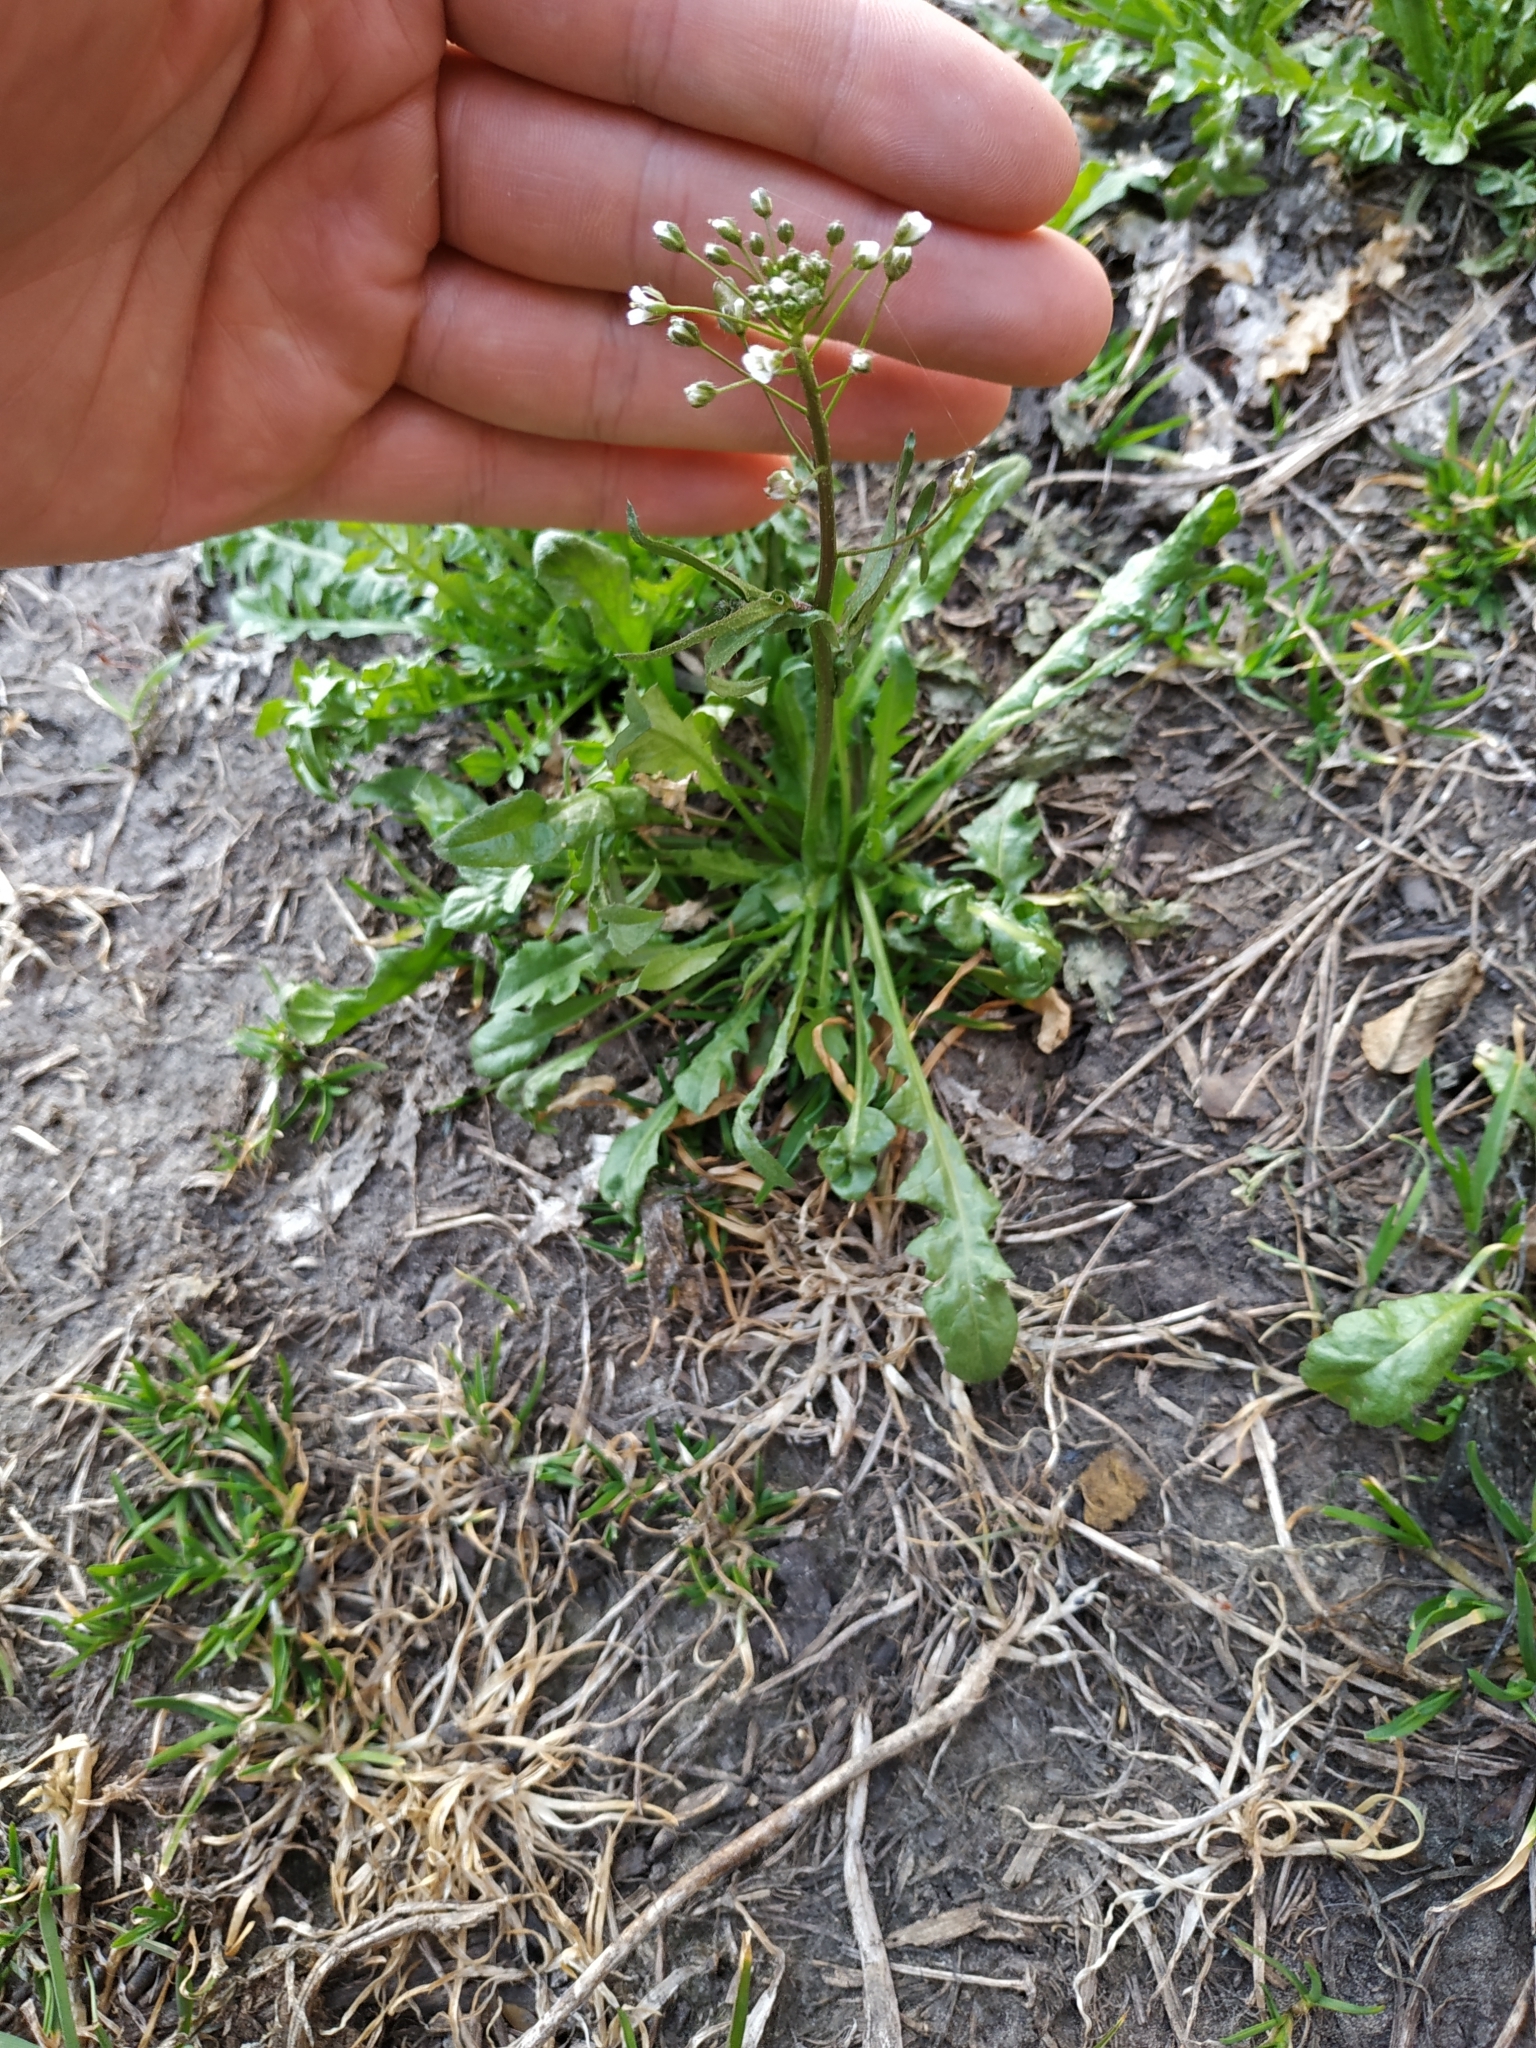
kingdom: Plantae
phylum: Tracheophyta
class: Magnoliopsida
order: Brassicales
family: Brassicaceae
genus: Capsella
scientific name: Capsella bursa-pastoris
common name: Shepherd's purse
